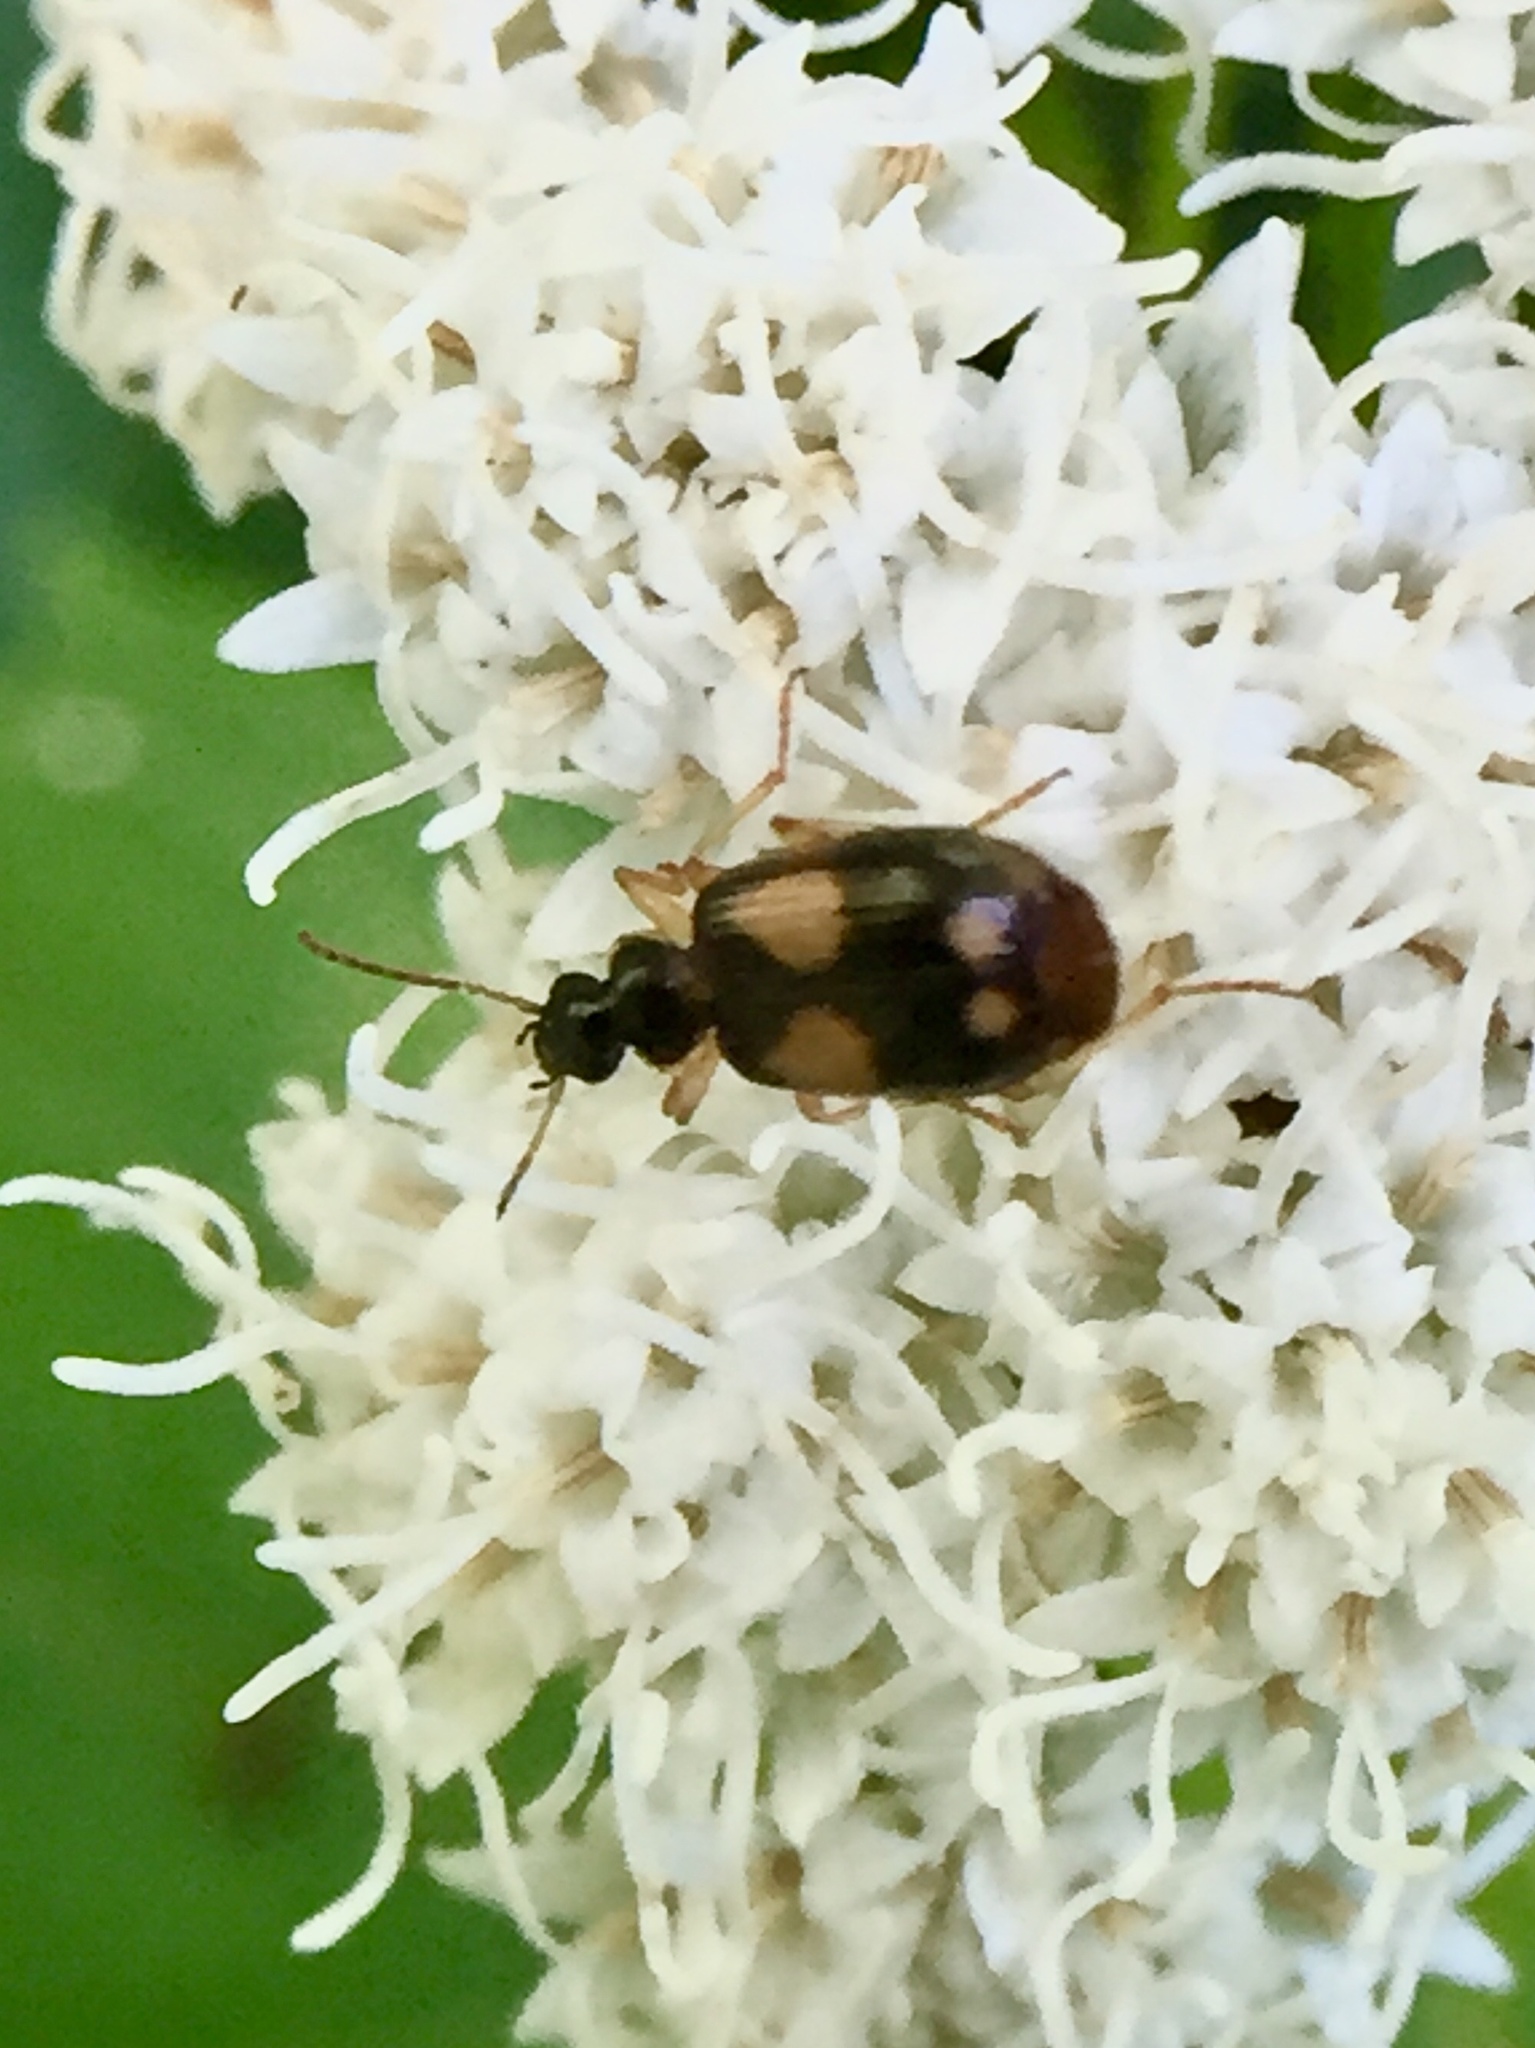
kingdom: Animalia
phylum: Arthropoda
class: Insecta
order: Coleoptera
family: Carabidae
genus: Lebia
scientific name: Lebia ornata
